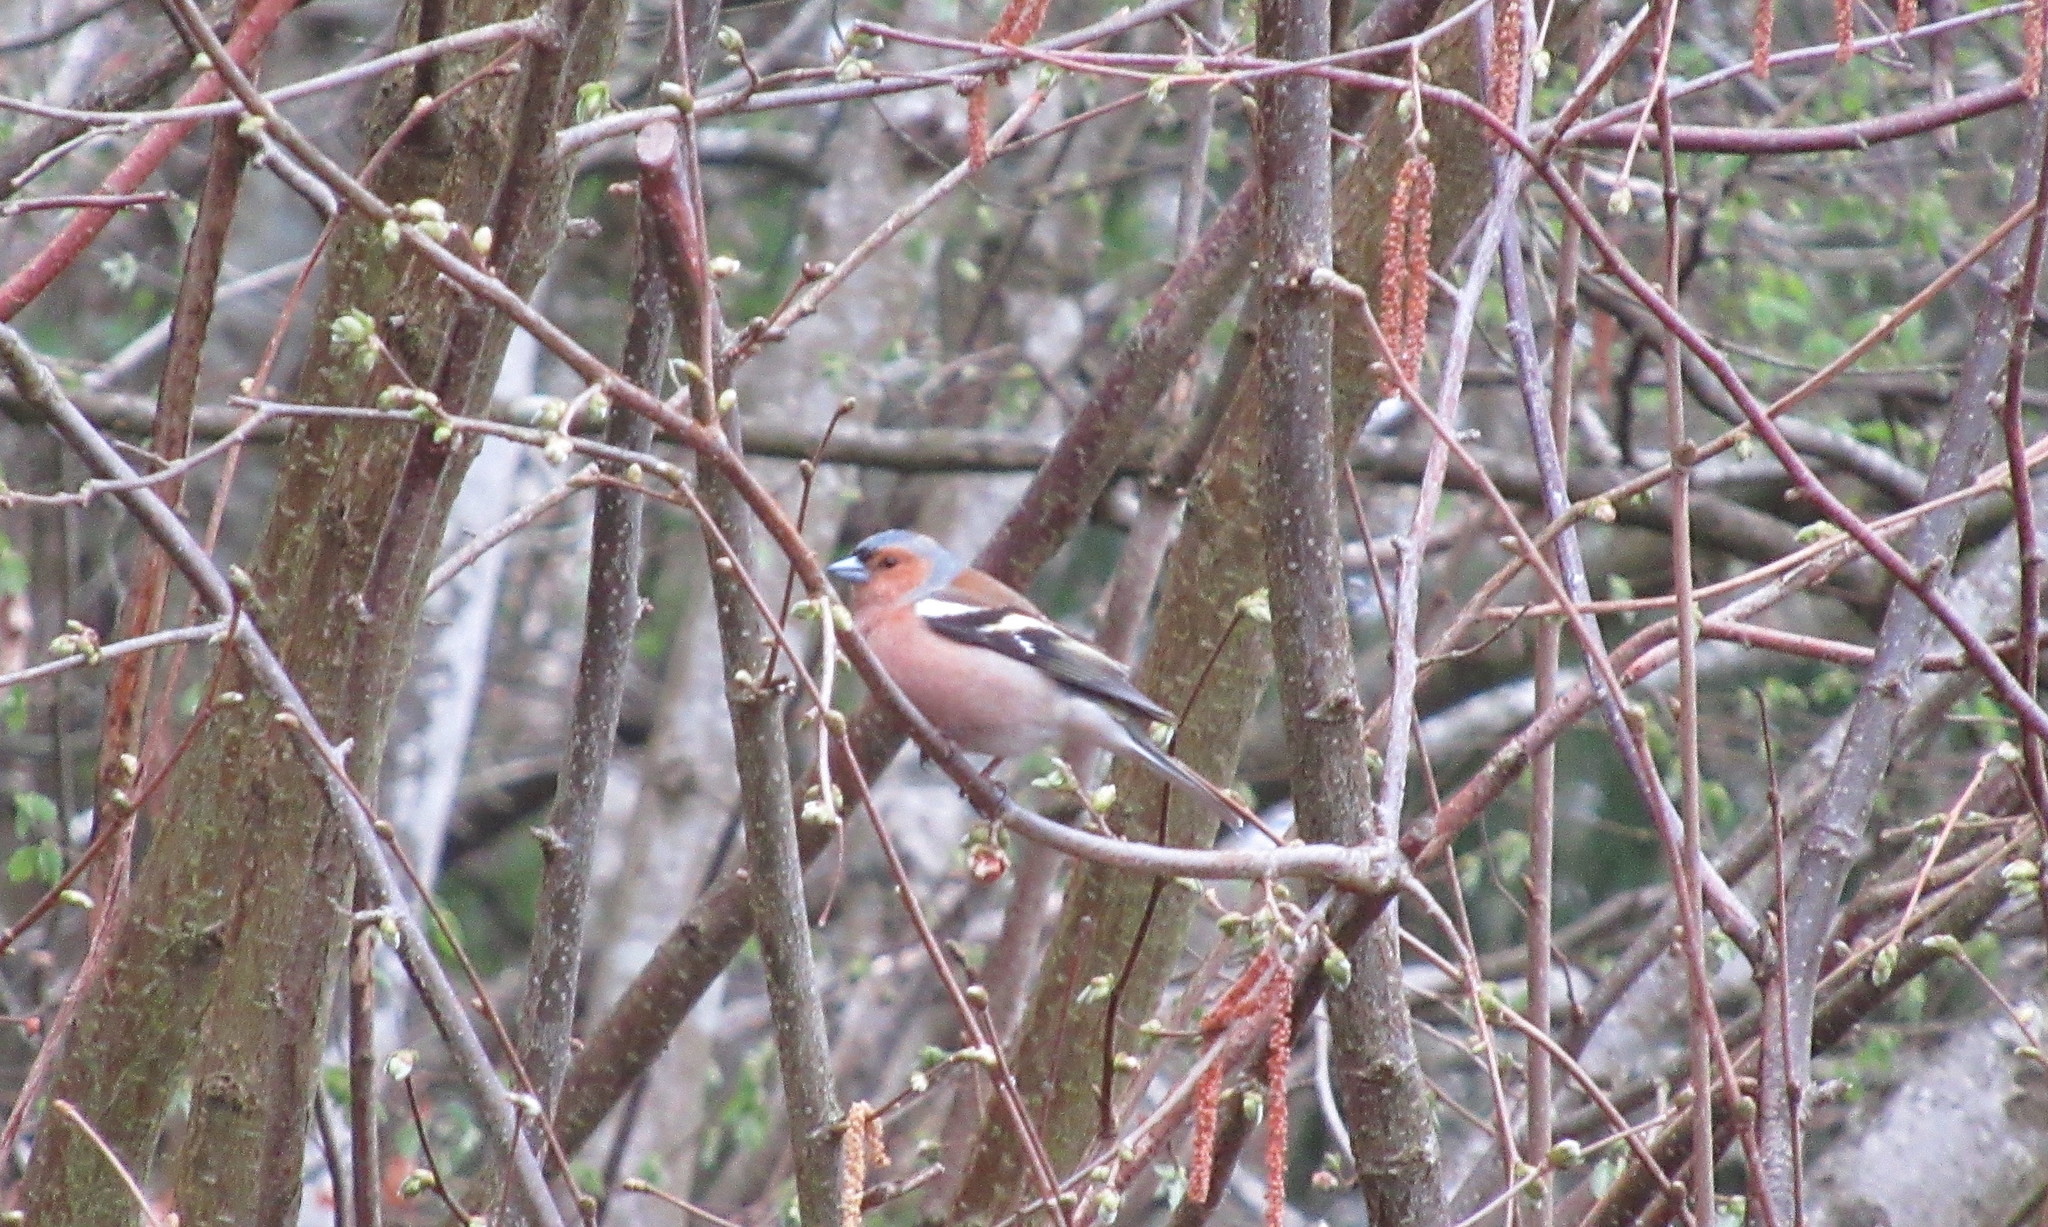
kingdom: Animalia
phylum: Chordata
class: Aves
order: Passeriformes
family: Fringillidae
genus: Fringilla
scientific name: Fringilla coelebs
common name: Common chaffinch
